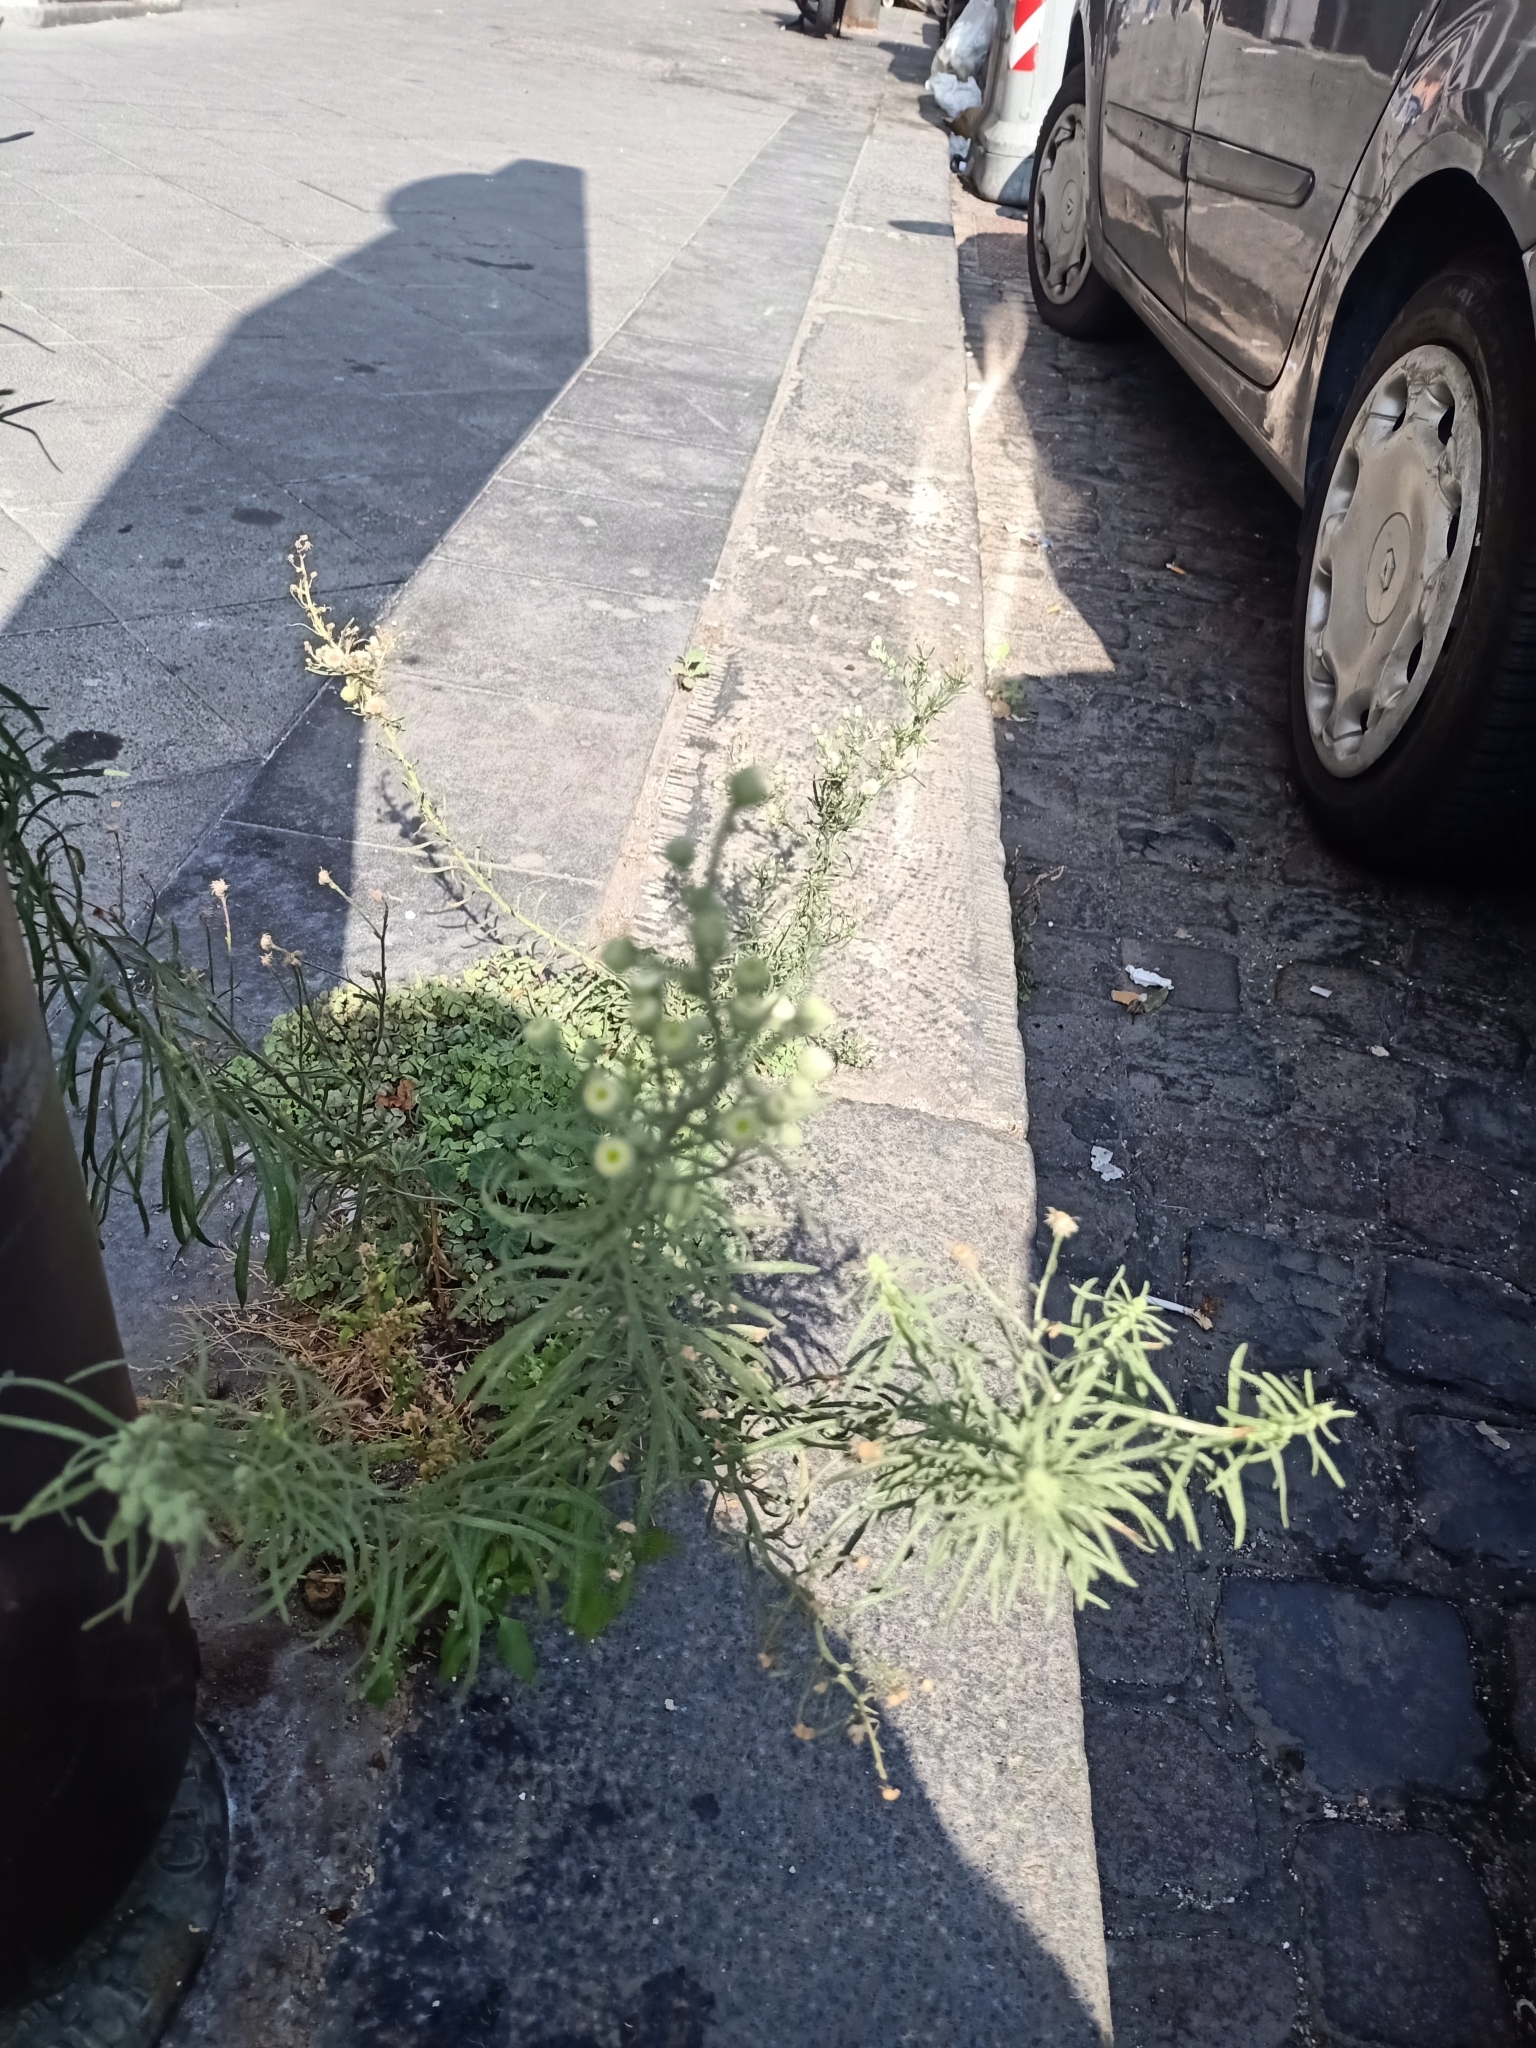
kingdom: Plantae
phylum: Tracheophyta
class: Magnoliopsida
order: Asterales
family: Asteraceae
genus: Erigeron
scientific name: Erigeron bonariensis
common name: Argentine fleabane
